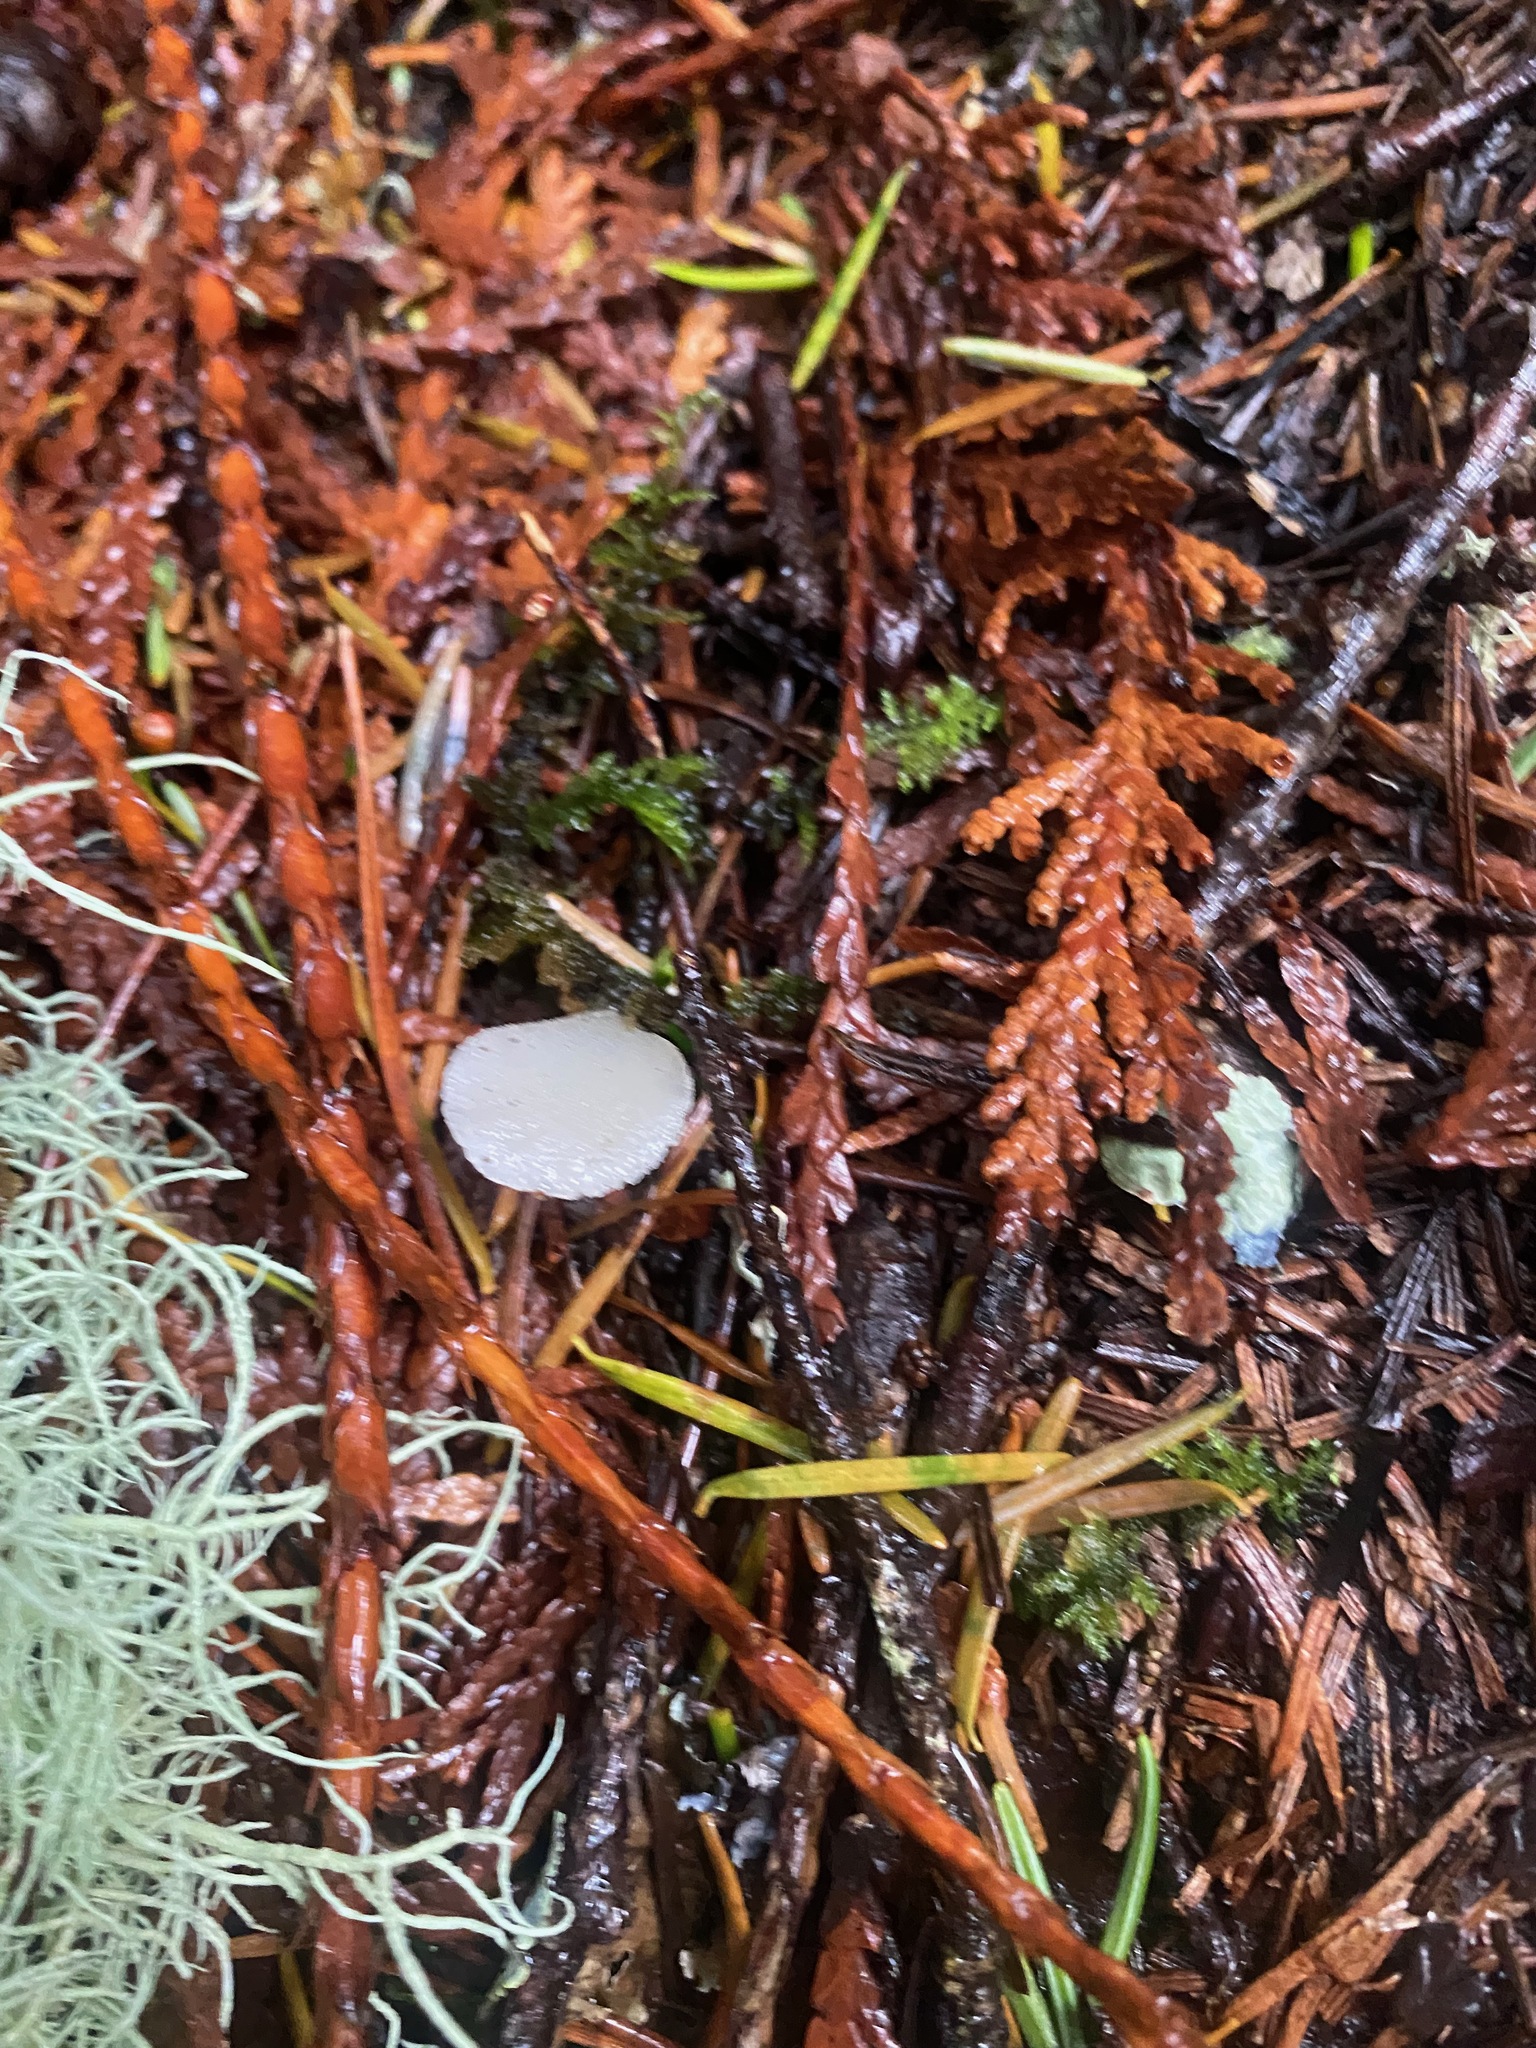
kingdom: Fungi
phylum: Basidiomycota
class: Agaricomycetes
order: Auriculariales
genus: Pseudohydnum
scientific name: Pseudohydnum gelatinosum
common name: Jelly tongue
